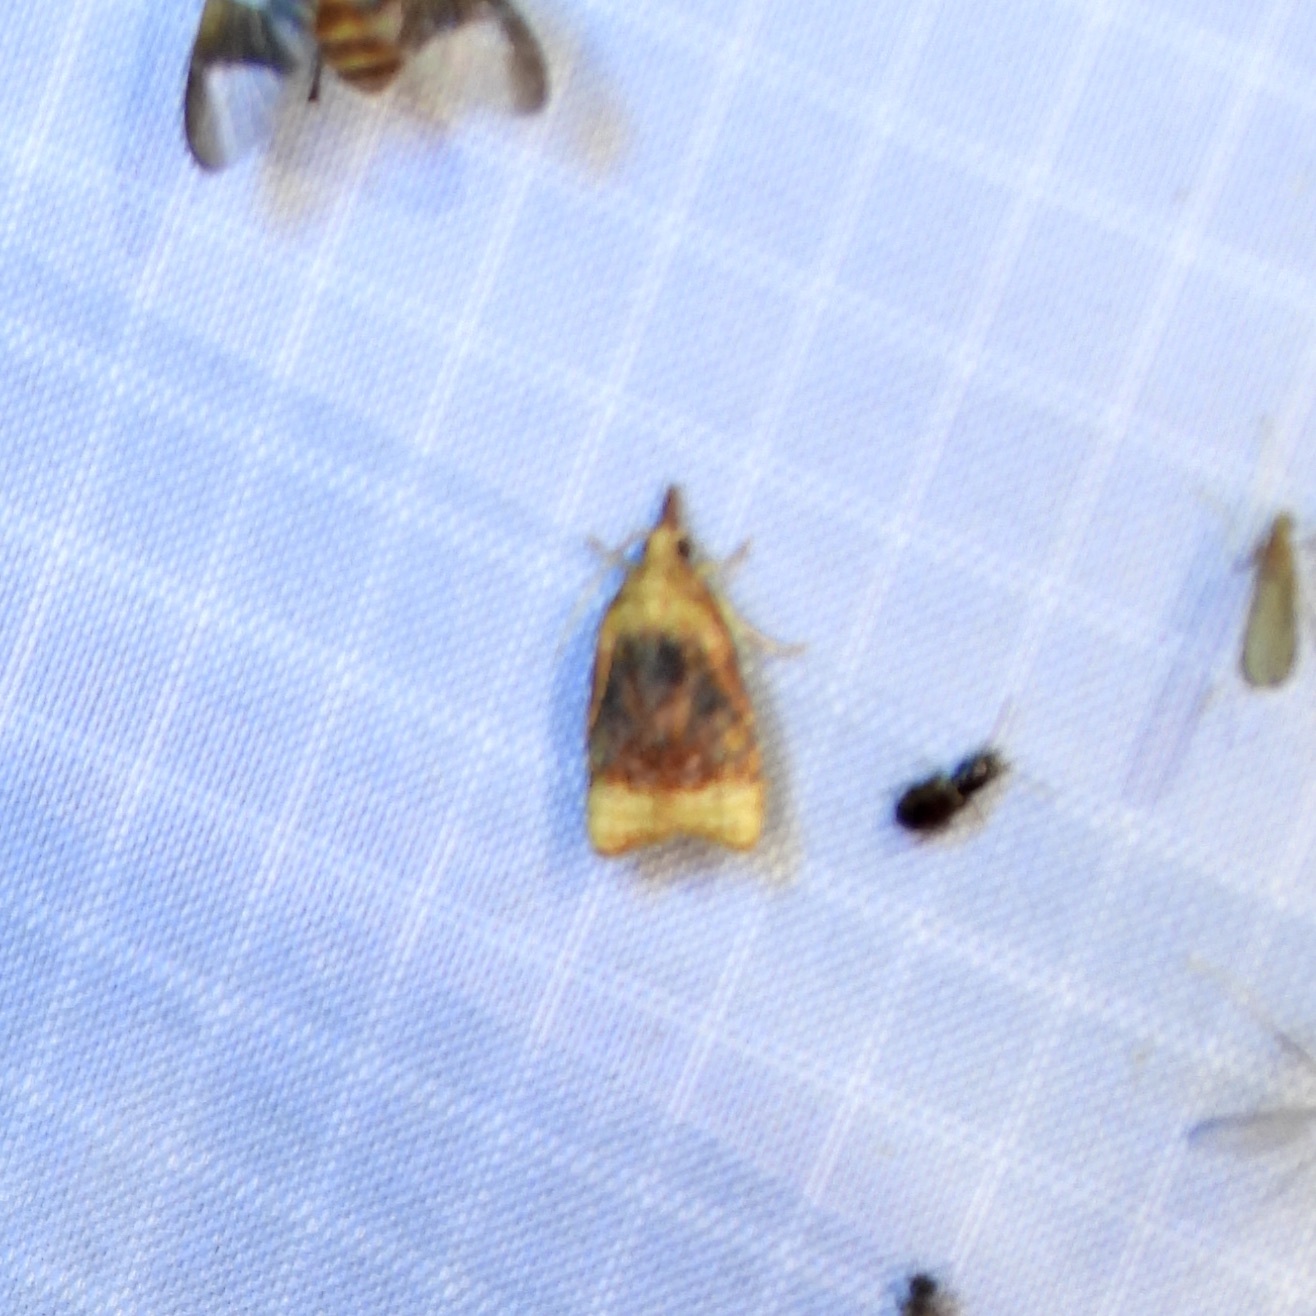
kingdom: Animalia
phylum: Arthropoda
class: Insecta
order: Lepidoptera
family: Tortricidae
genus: Platynota
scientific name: Platynota flavedana
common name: Black-shaded platynota moth
